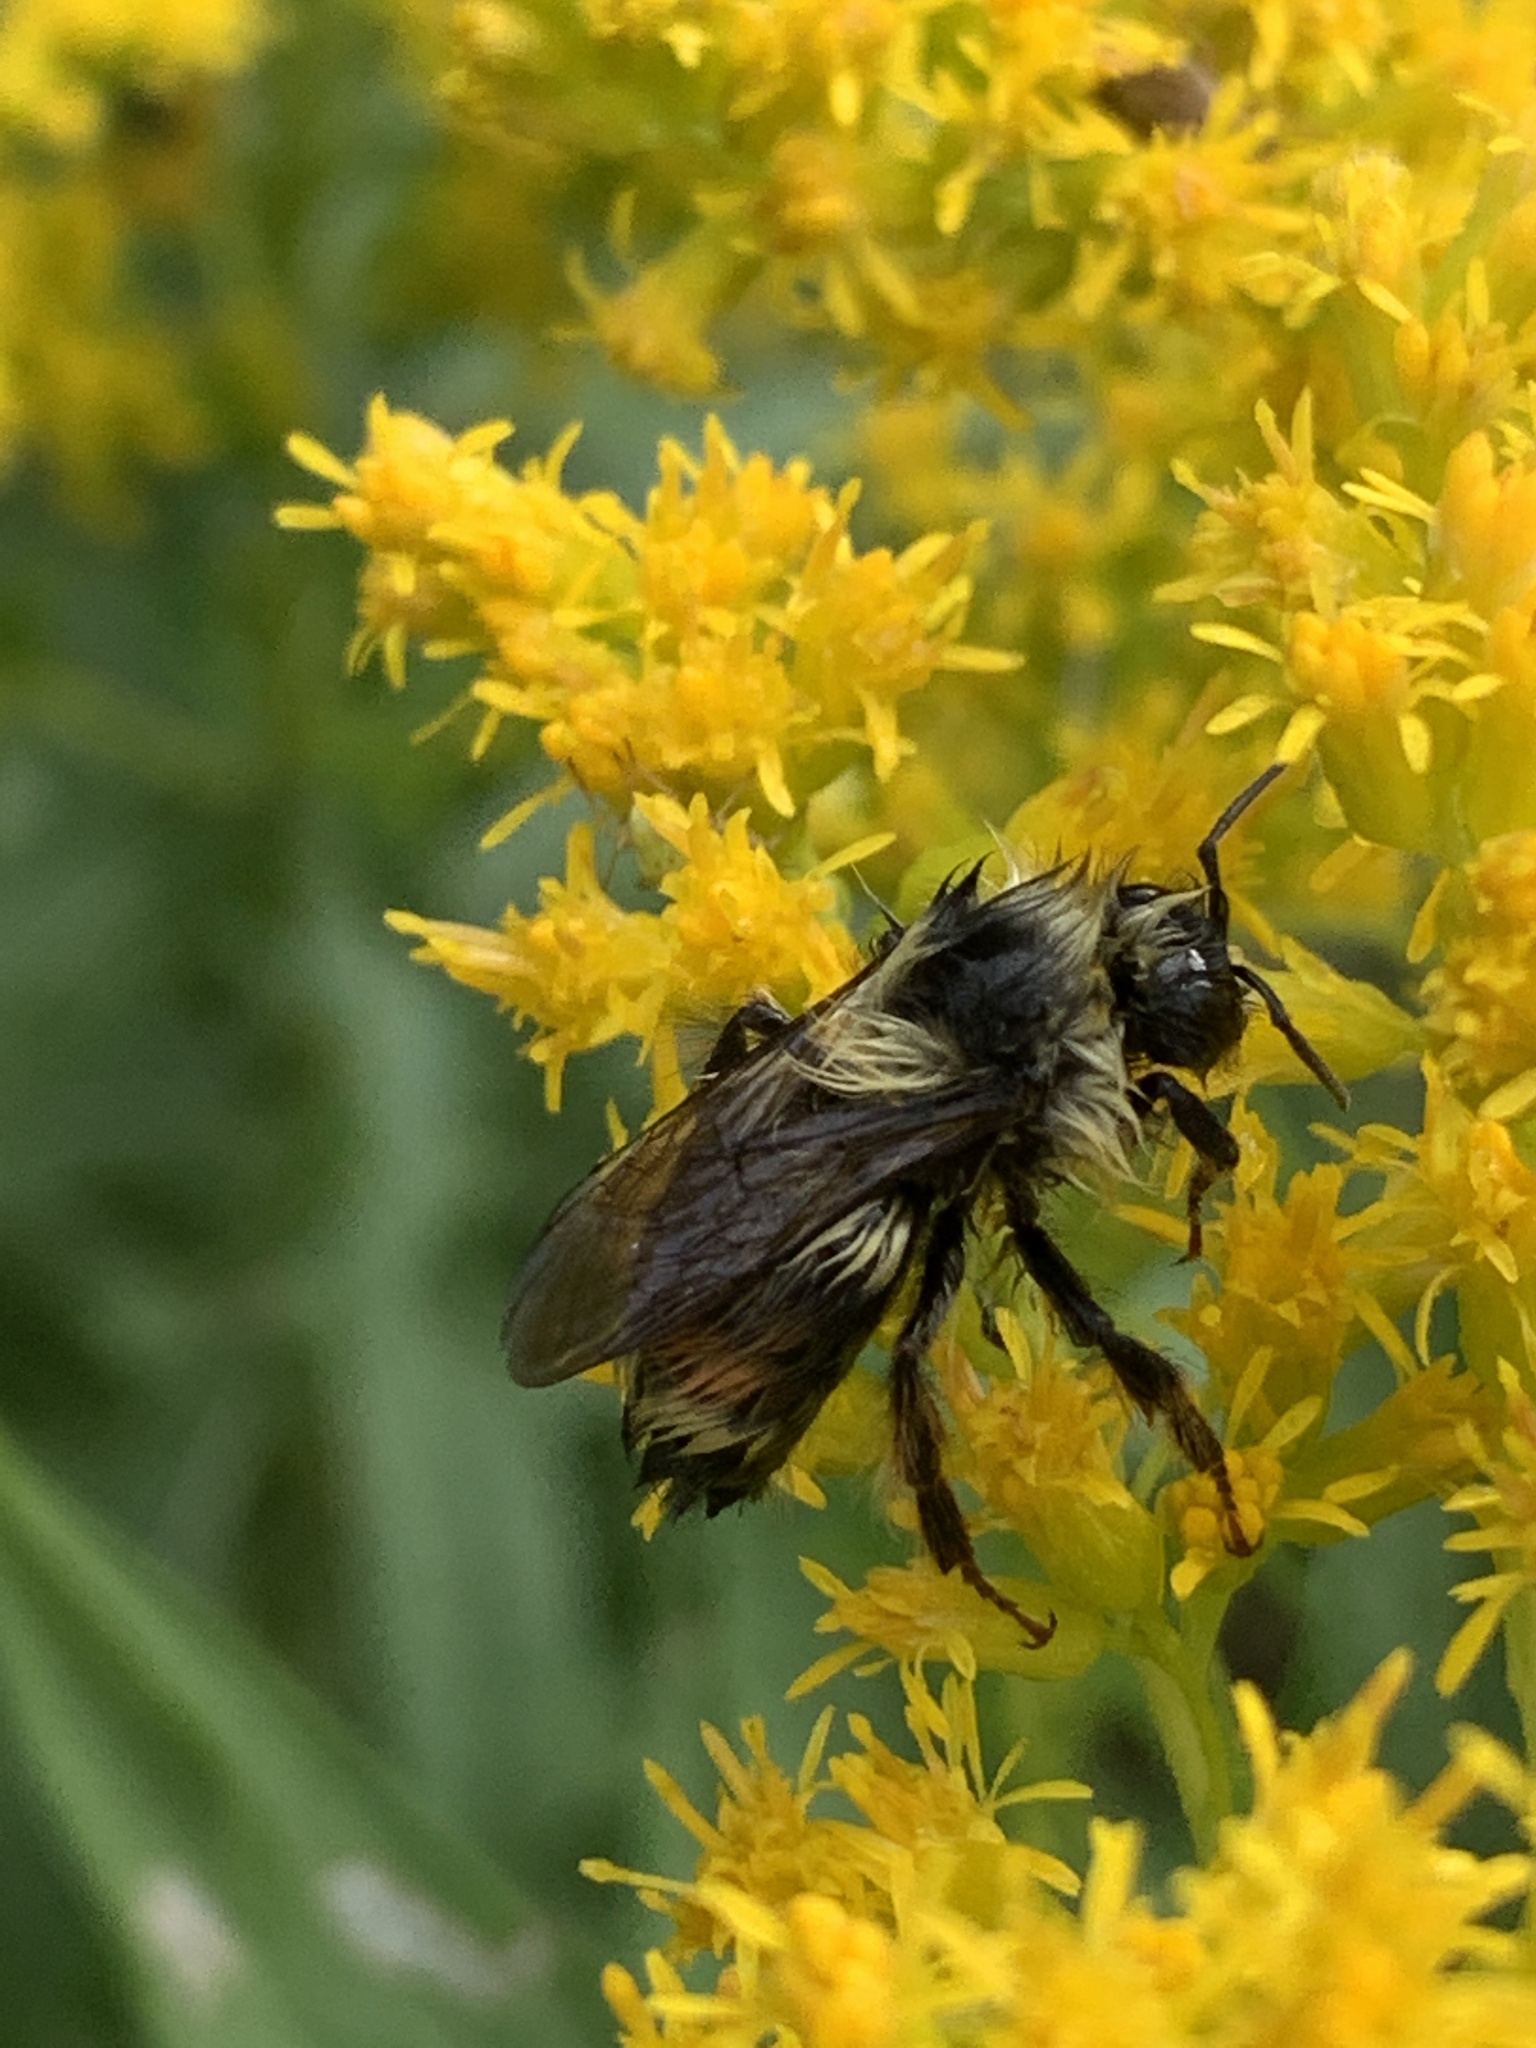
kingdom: Animalia
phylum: Arthropoda
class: Insecta
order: Hymenoptera
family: Apidae
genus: Bombus
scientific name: Bombus vancouverensis
